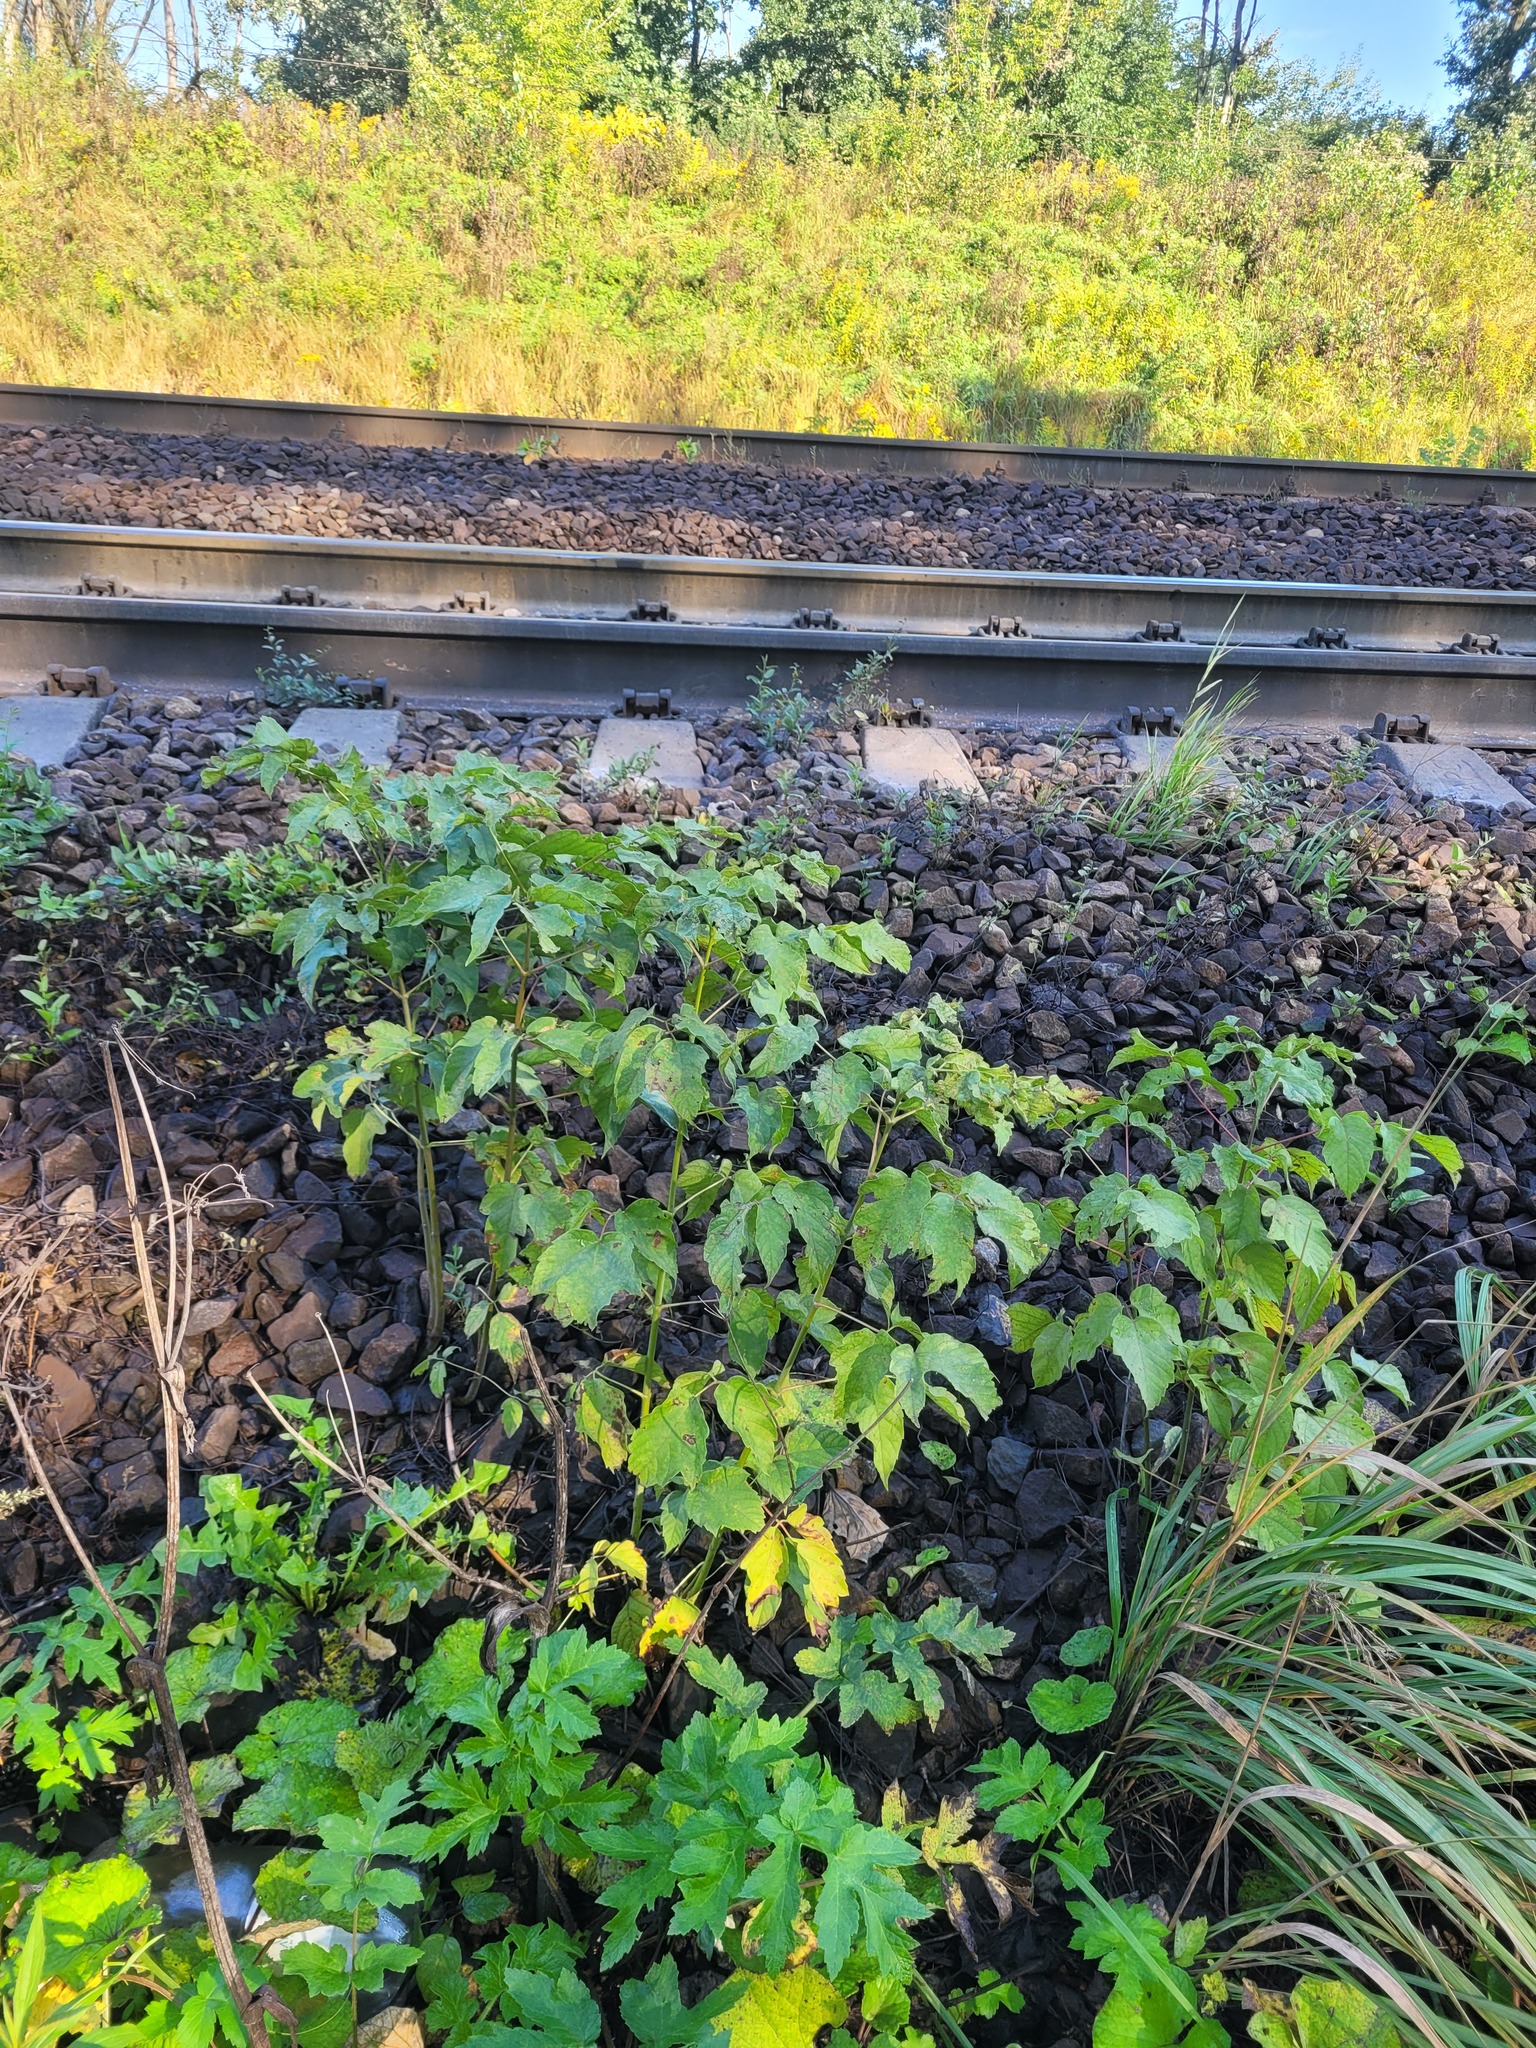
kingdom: Plantae
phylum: Tracheophyta
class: Magnoliopsida
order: Sapindales
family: Sapindaceae
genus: Acer
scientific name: Acer negundo
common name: Ashleaf maple
